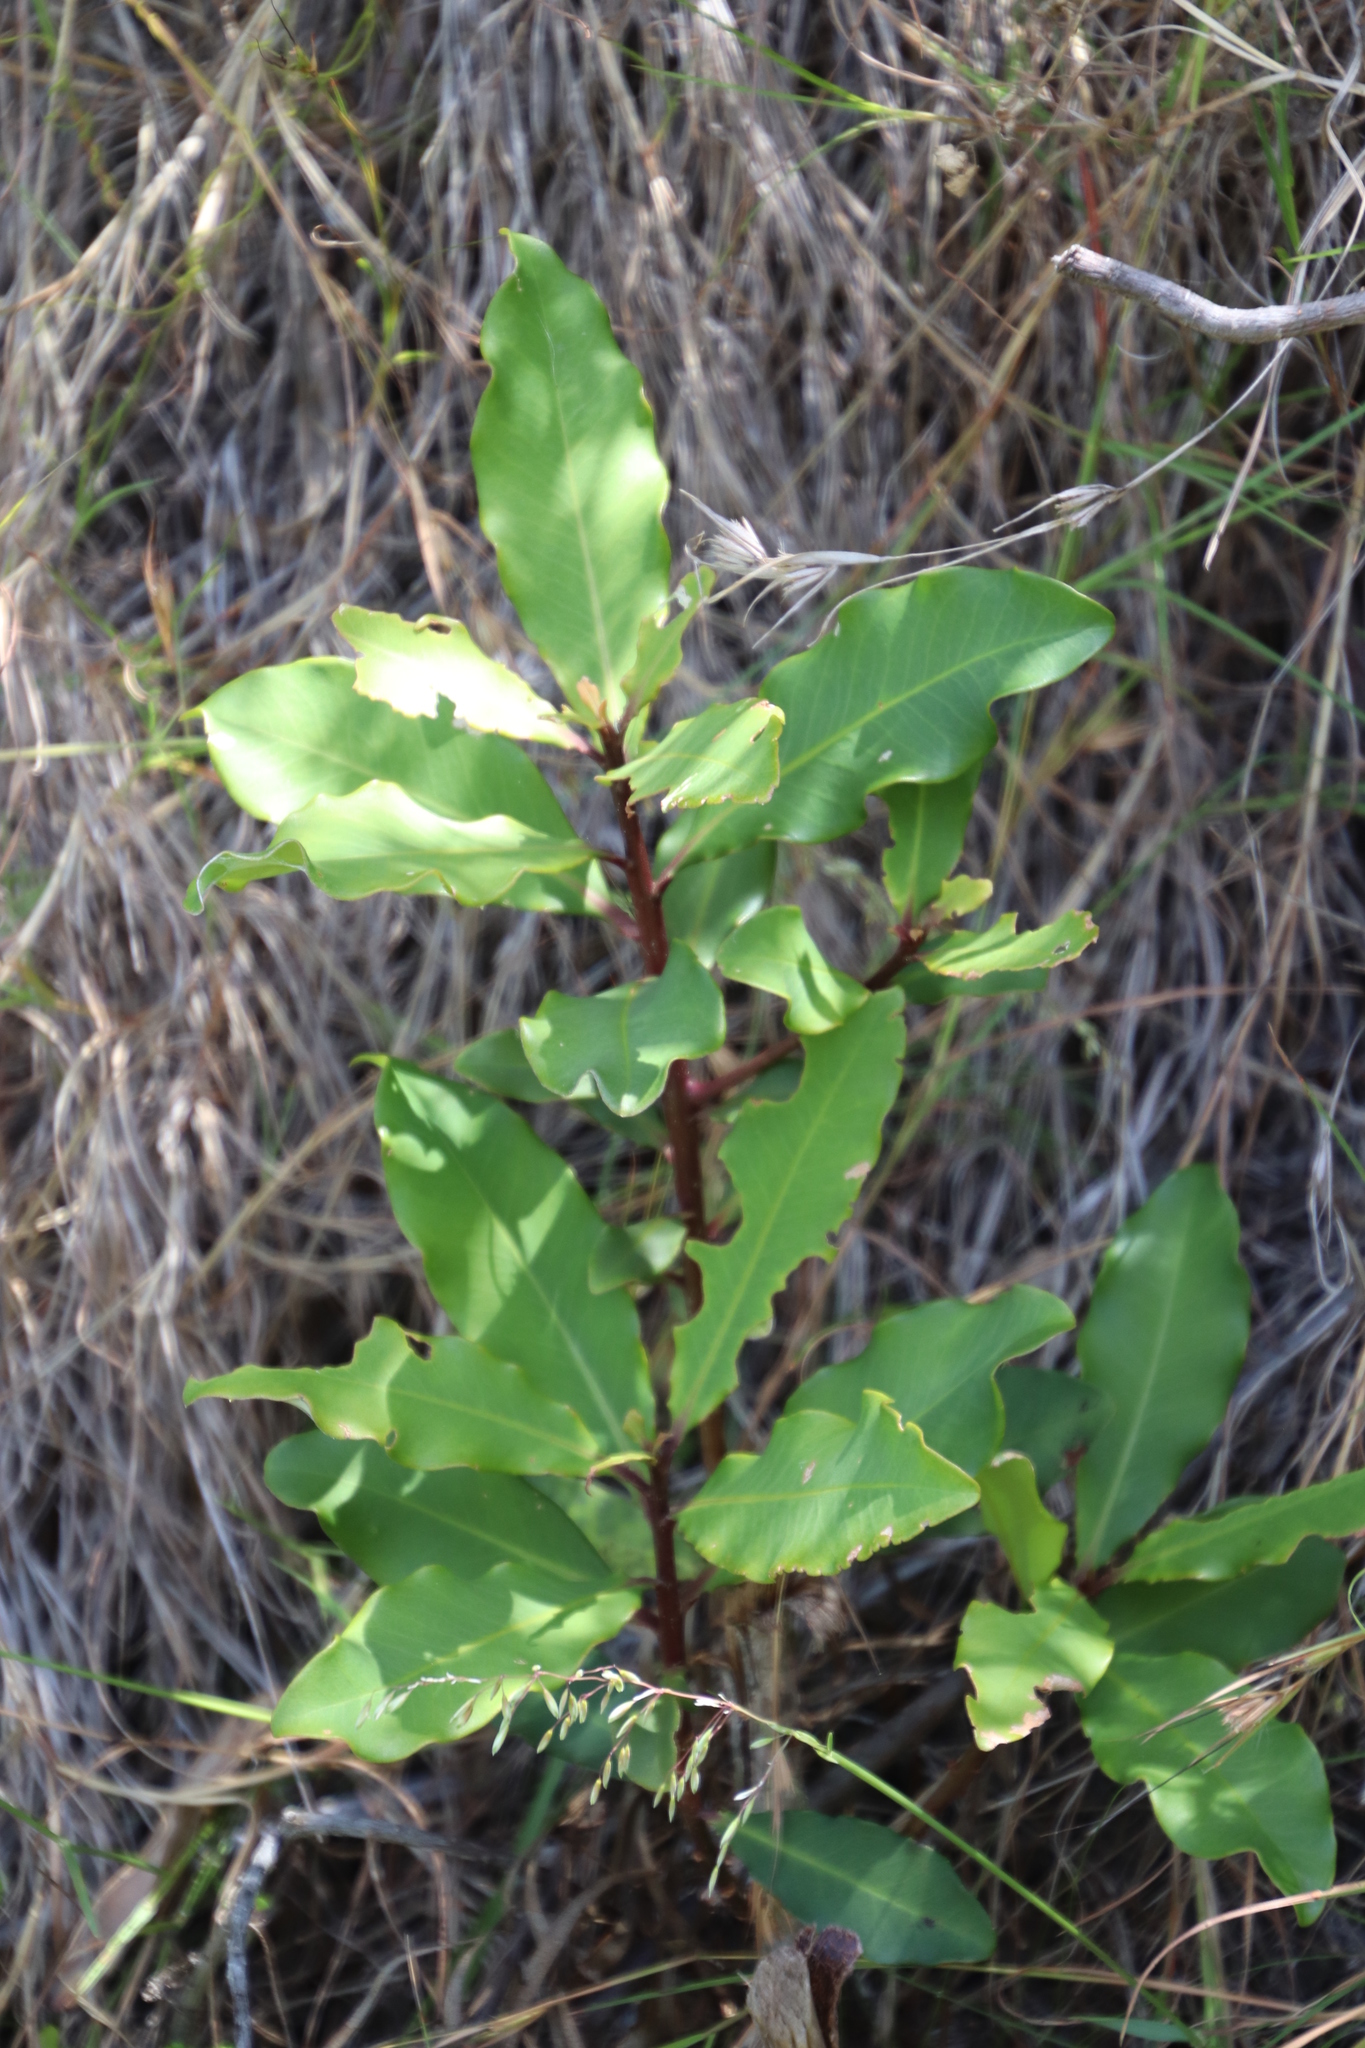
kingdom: Plantae
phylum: Tracheophyta
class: Magnoliopsida
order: Ericales
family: Primulaceae
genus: Myrsine
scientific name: Myrsine melanophloeos
